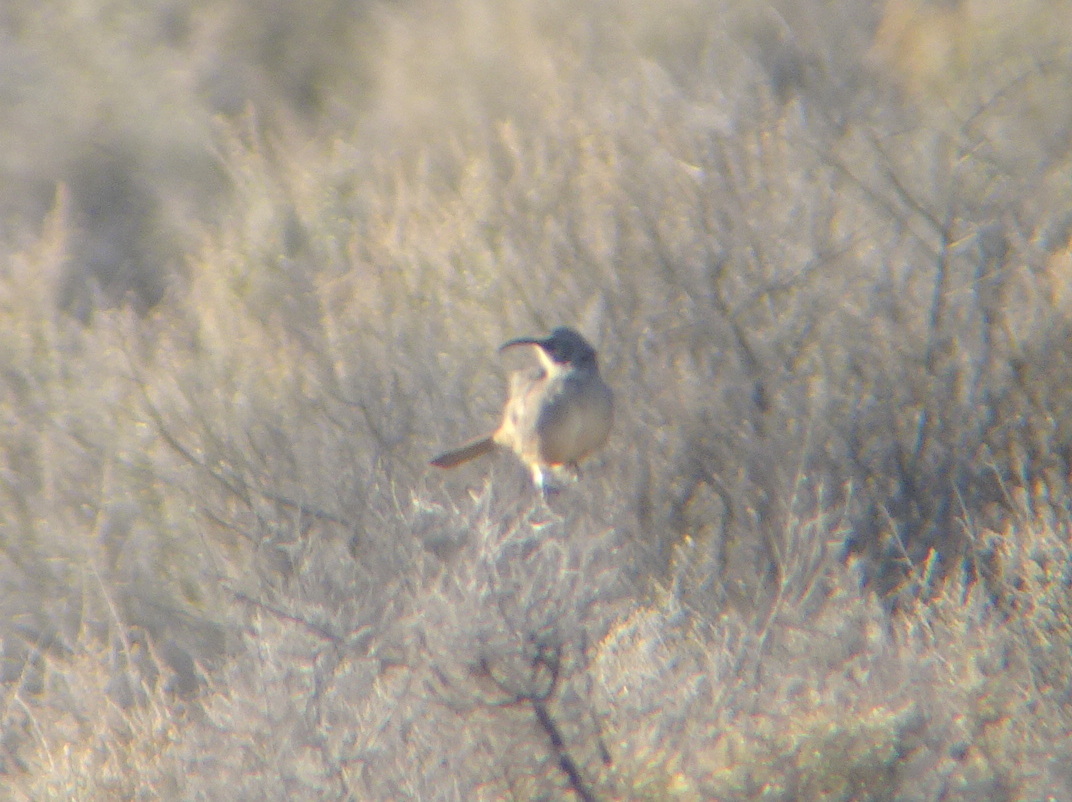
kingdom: Animalia
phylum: Chordata
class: Aves
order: Passeriformes
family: Mimidae
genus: Toxostoma
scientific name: Toxostoma redivivum
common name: California thrasher
